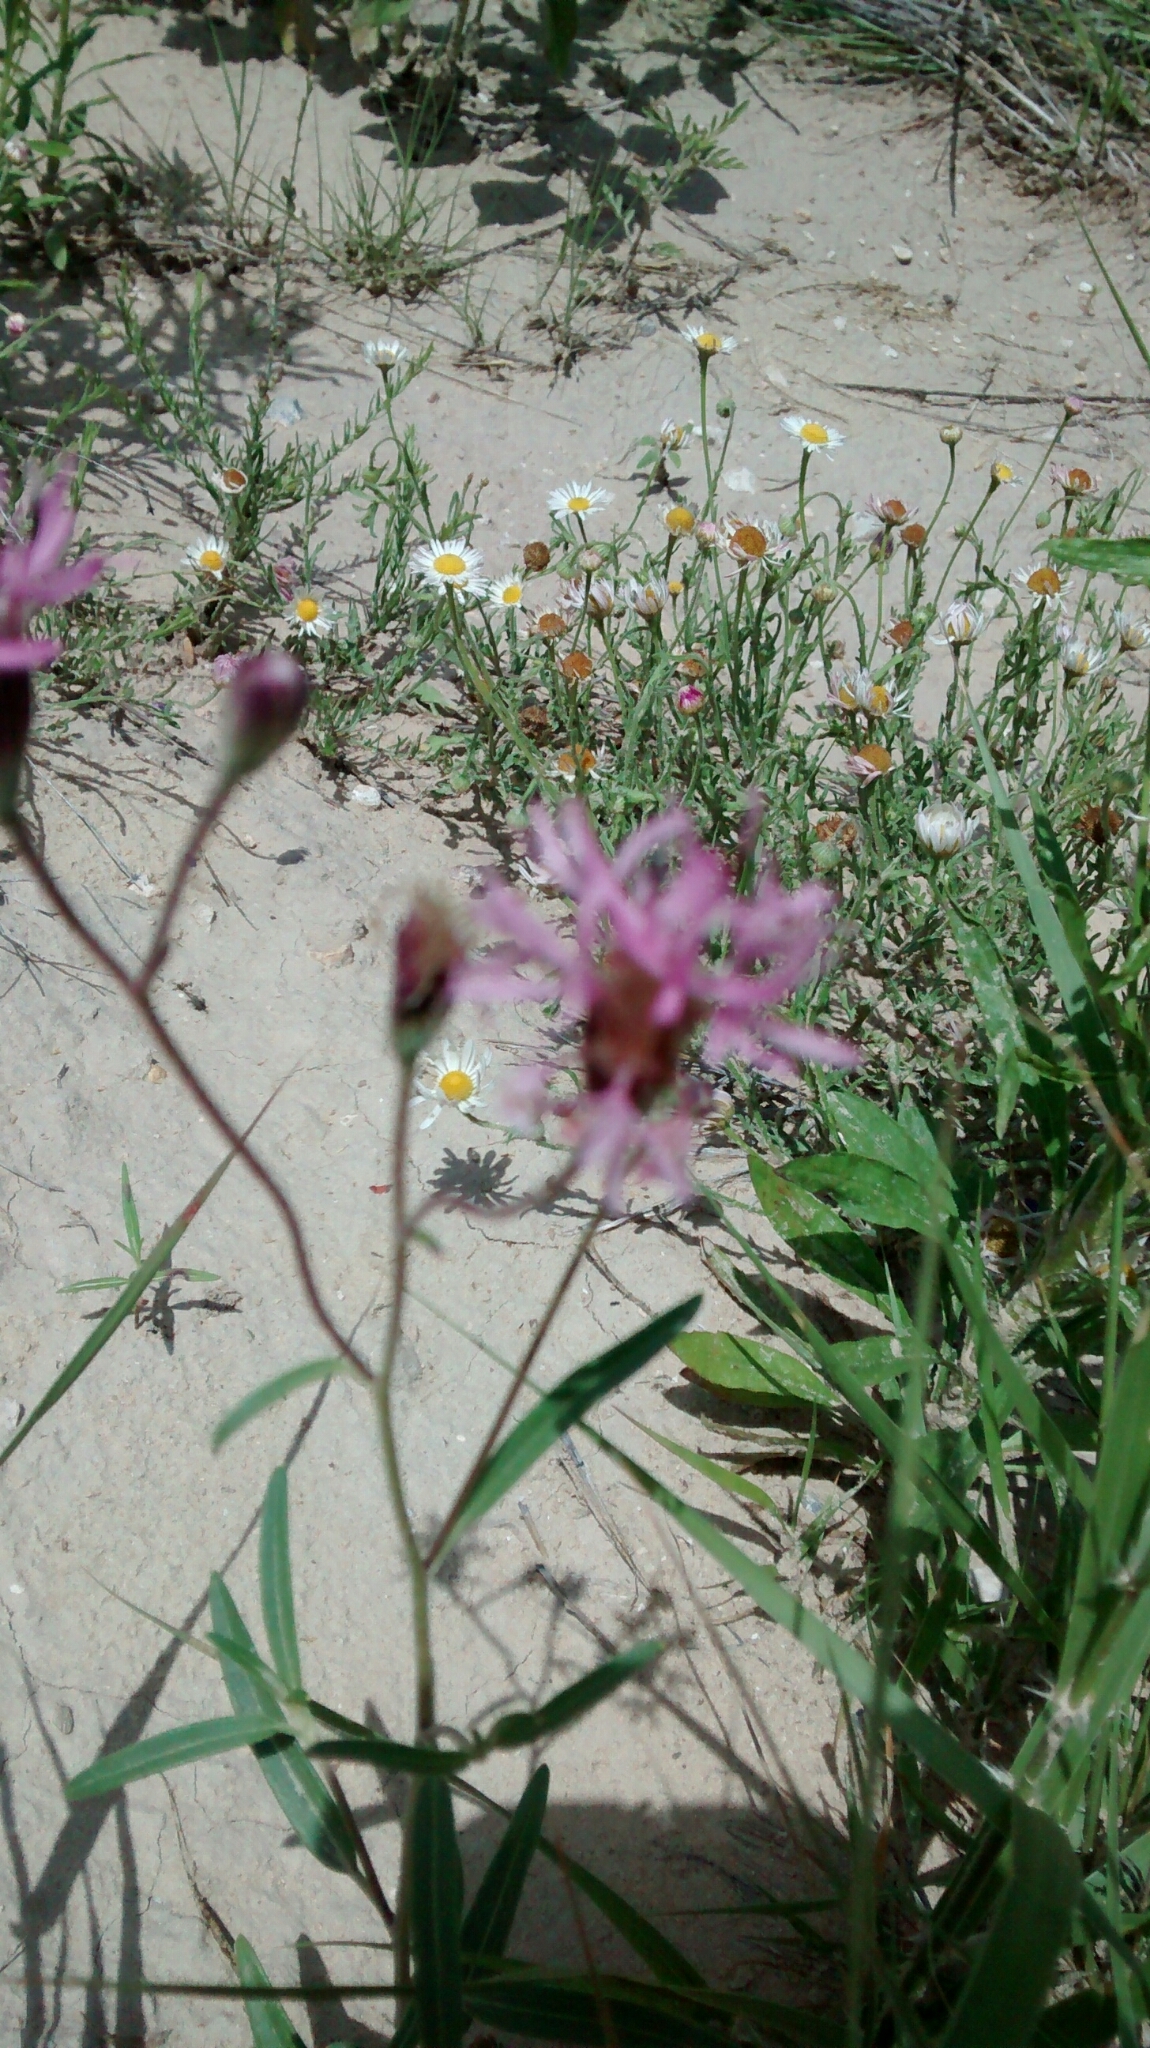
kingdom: Plantae
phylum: Tracheophyta
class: Magnoliopsida
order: Asterales
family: Asteraceae
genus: Palafoxia
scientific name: Palafoxia rosea
